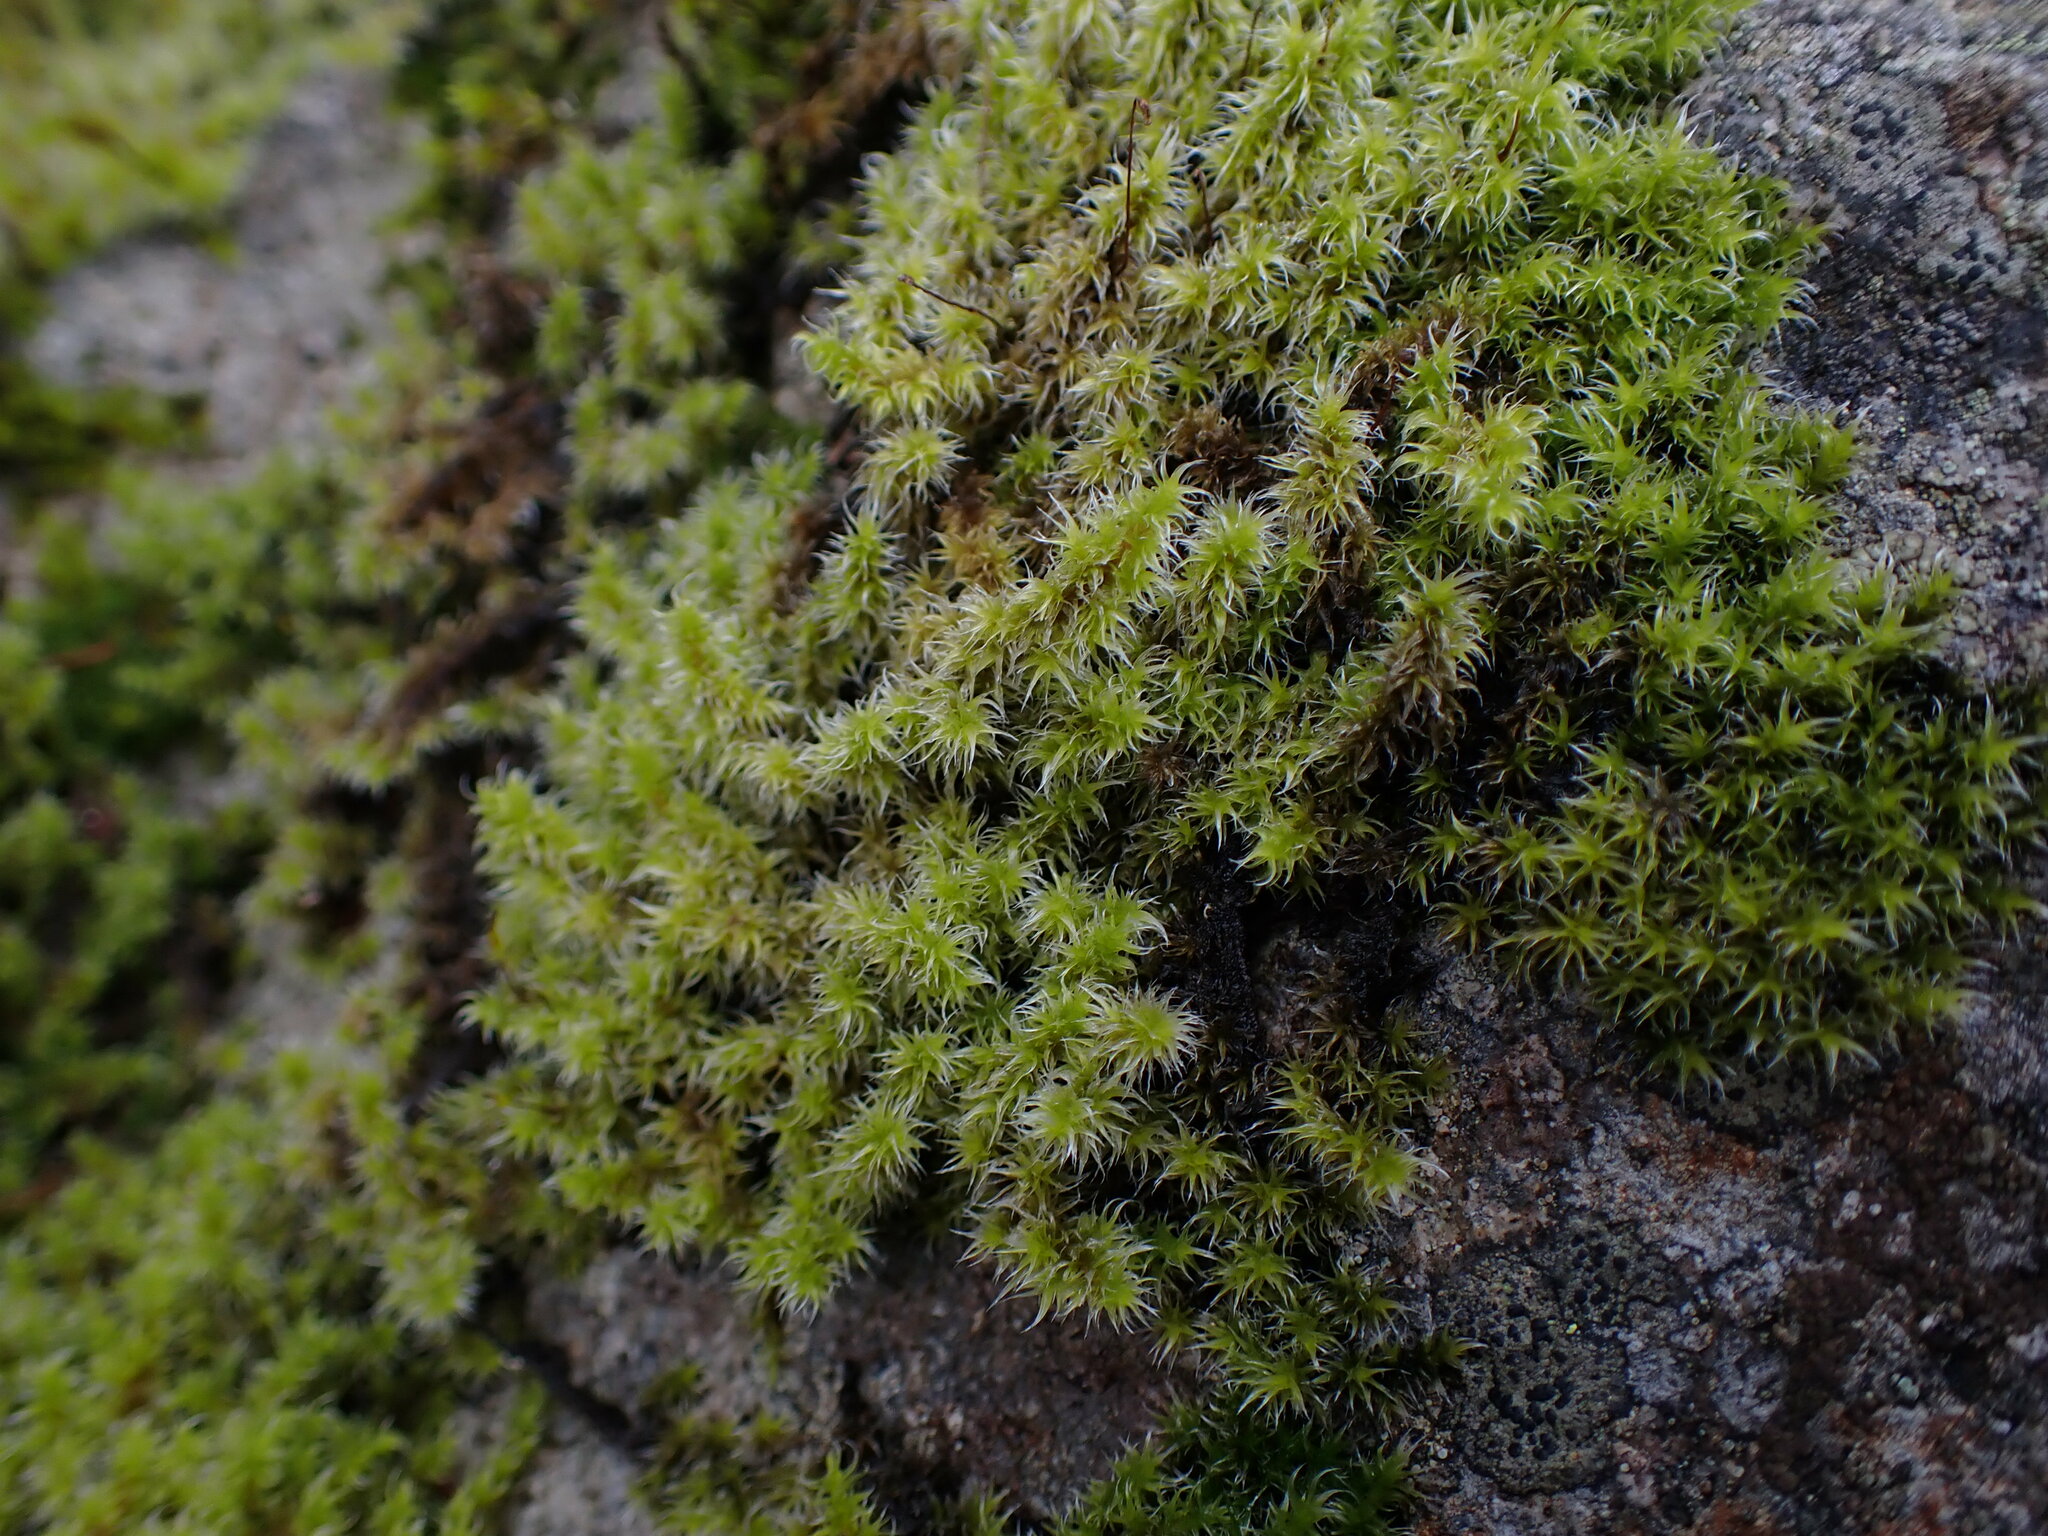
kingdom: Plantae
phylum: Bryophyta
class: Bryopsida
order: Grimmiales
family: Grimmiaceae
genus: Niphotrichum
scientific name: Niphotrichum elongatum
